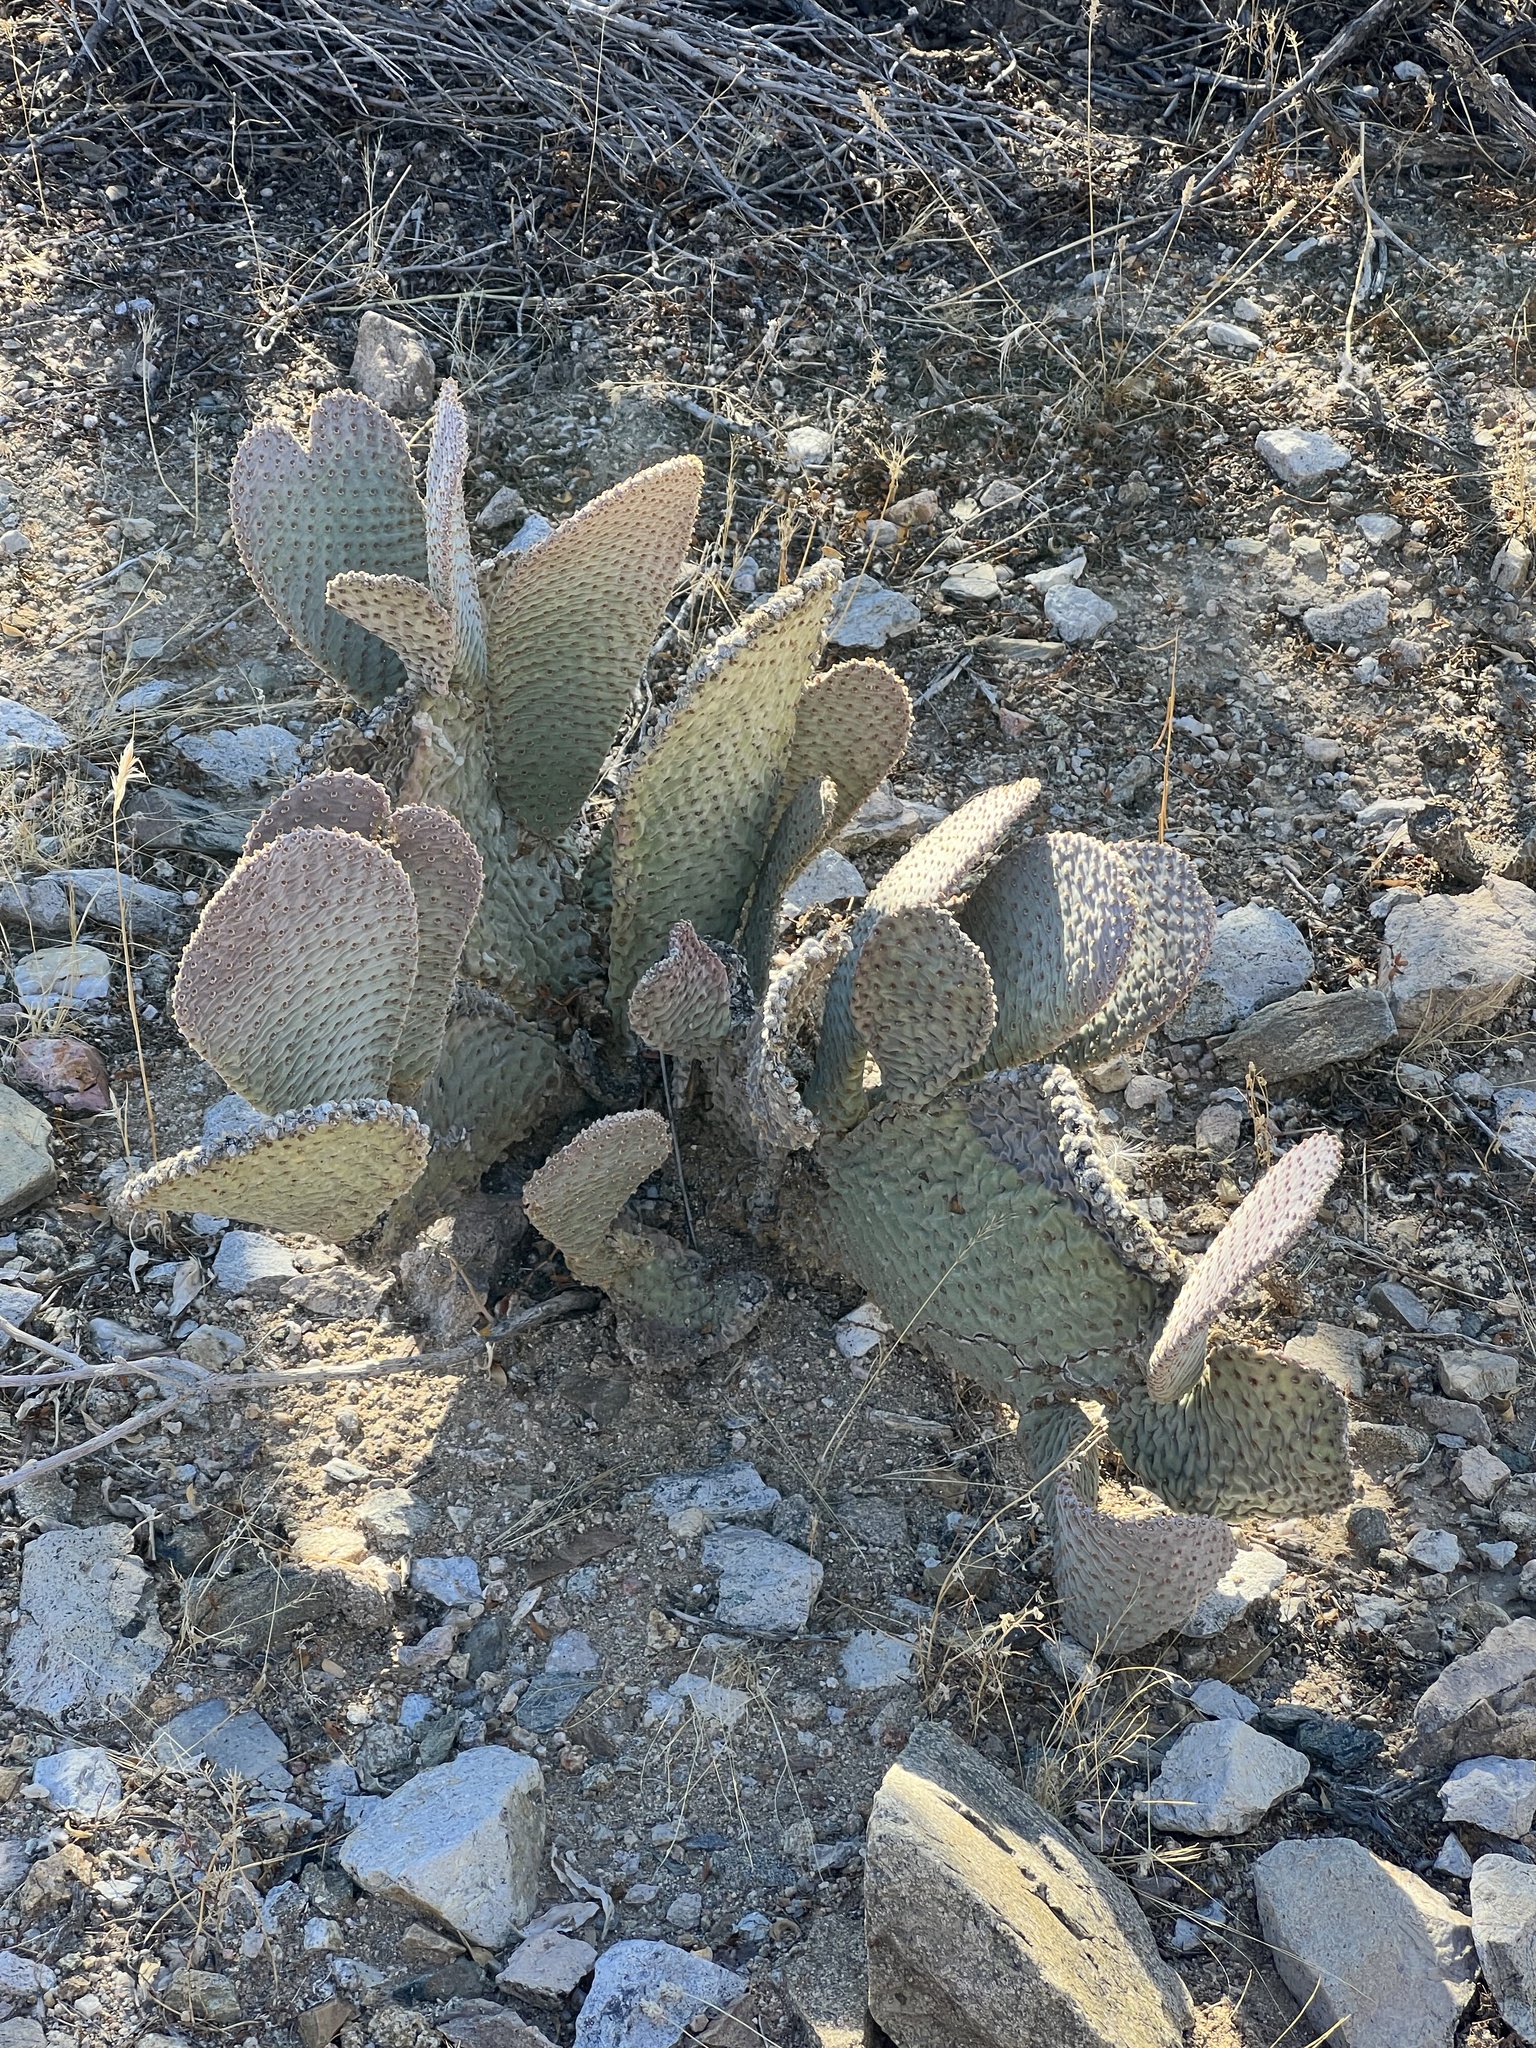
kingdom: Plantae
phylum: Tracheophyta
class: Magnoliopsida
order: Caryophyllales
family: Cactaceae
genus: Opuntia
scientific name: Opuntia basilaris
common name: Beavertail prickly-pear
